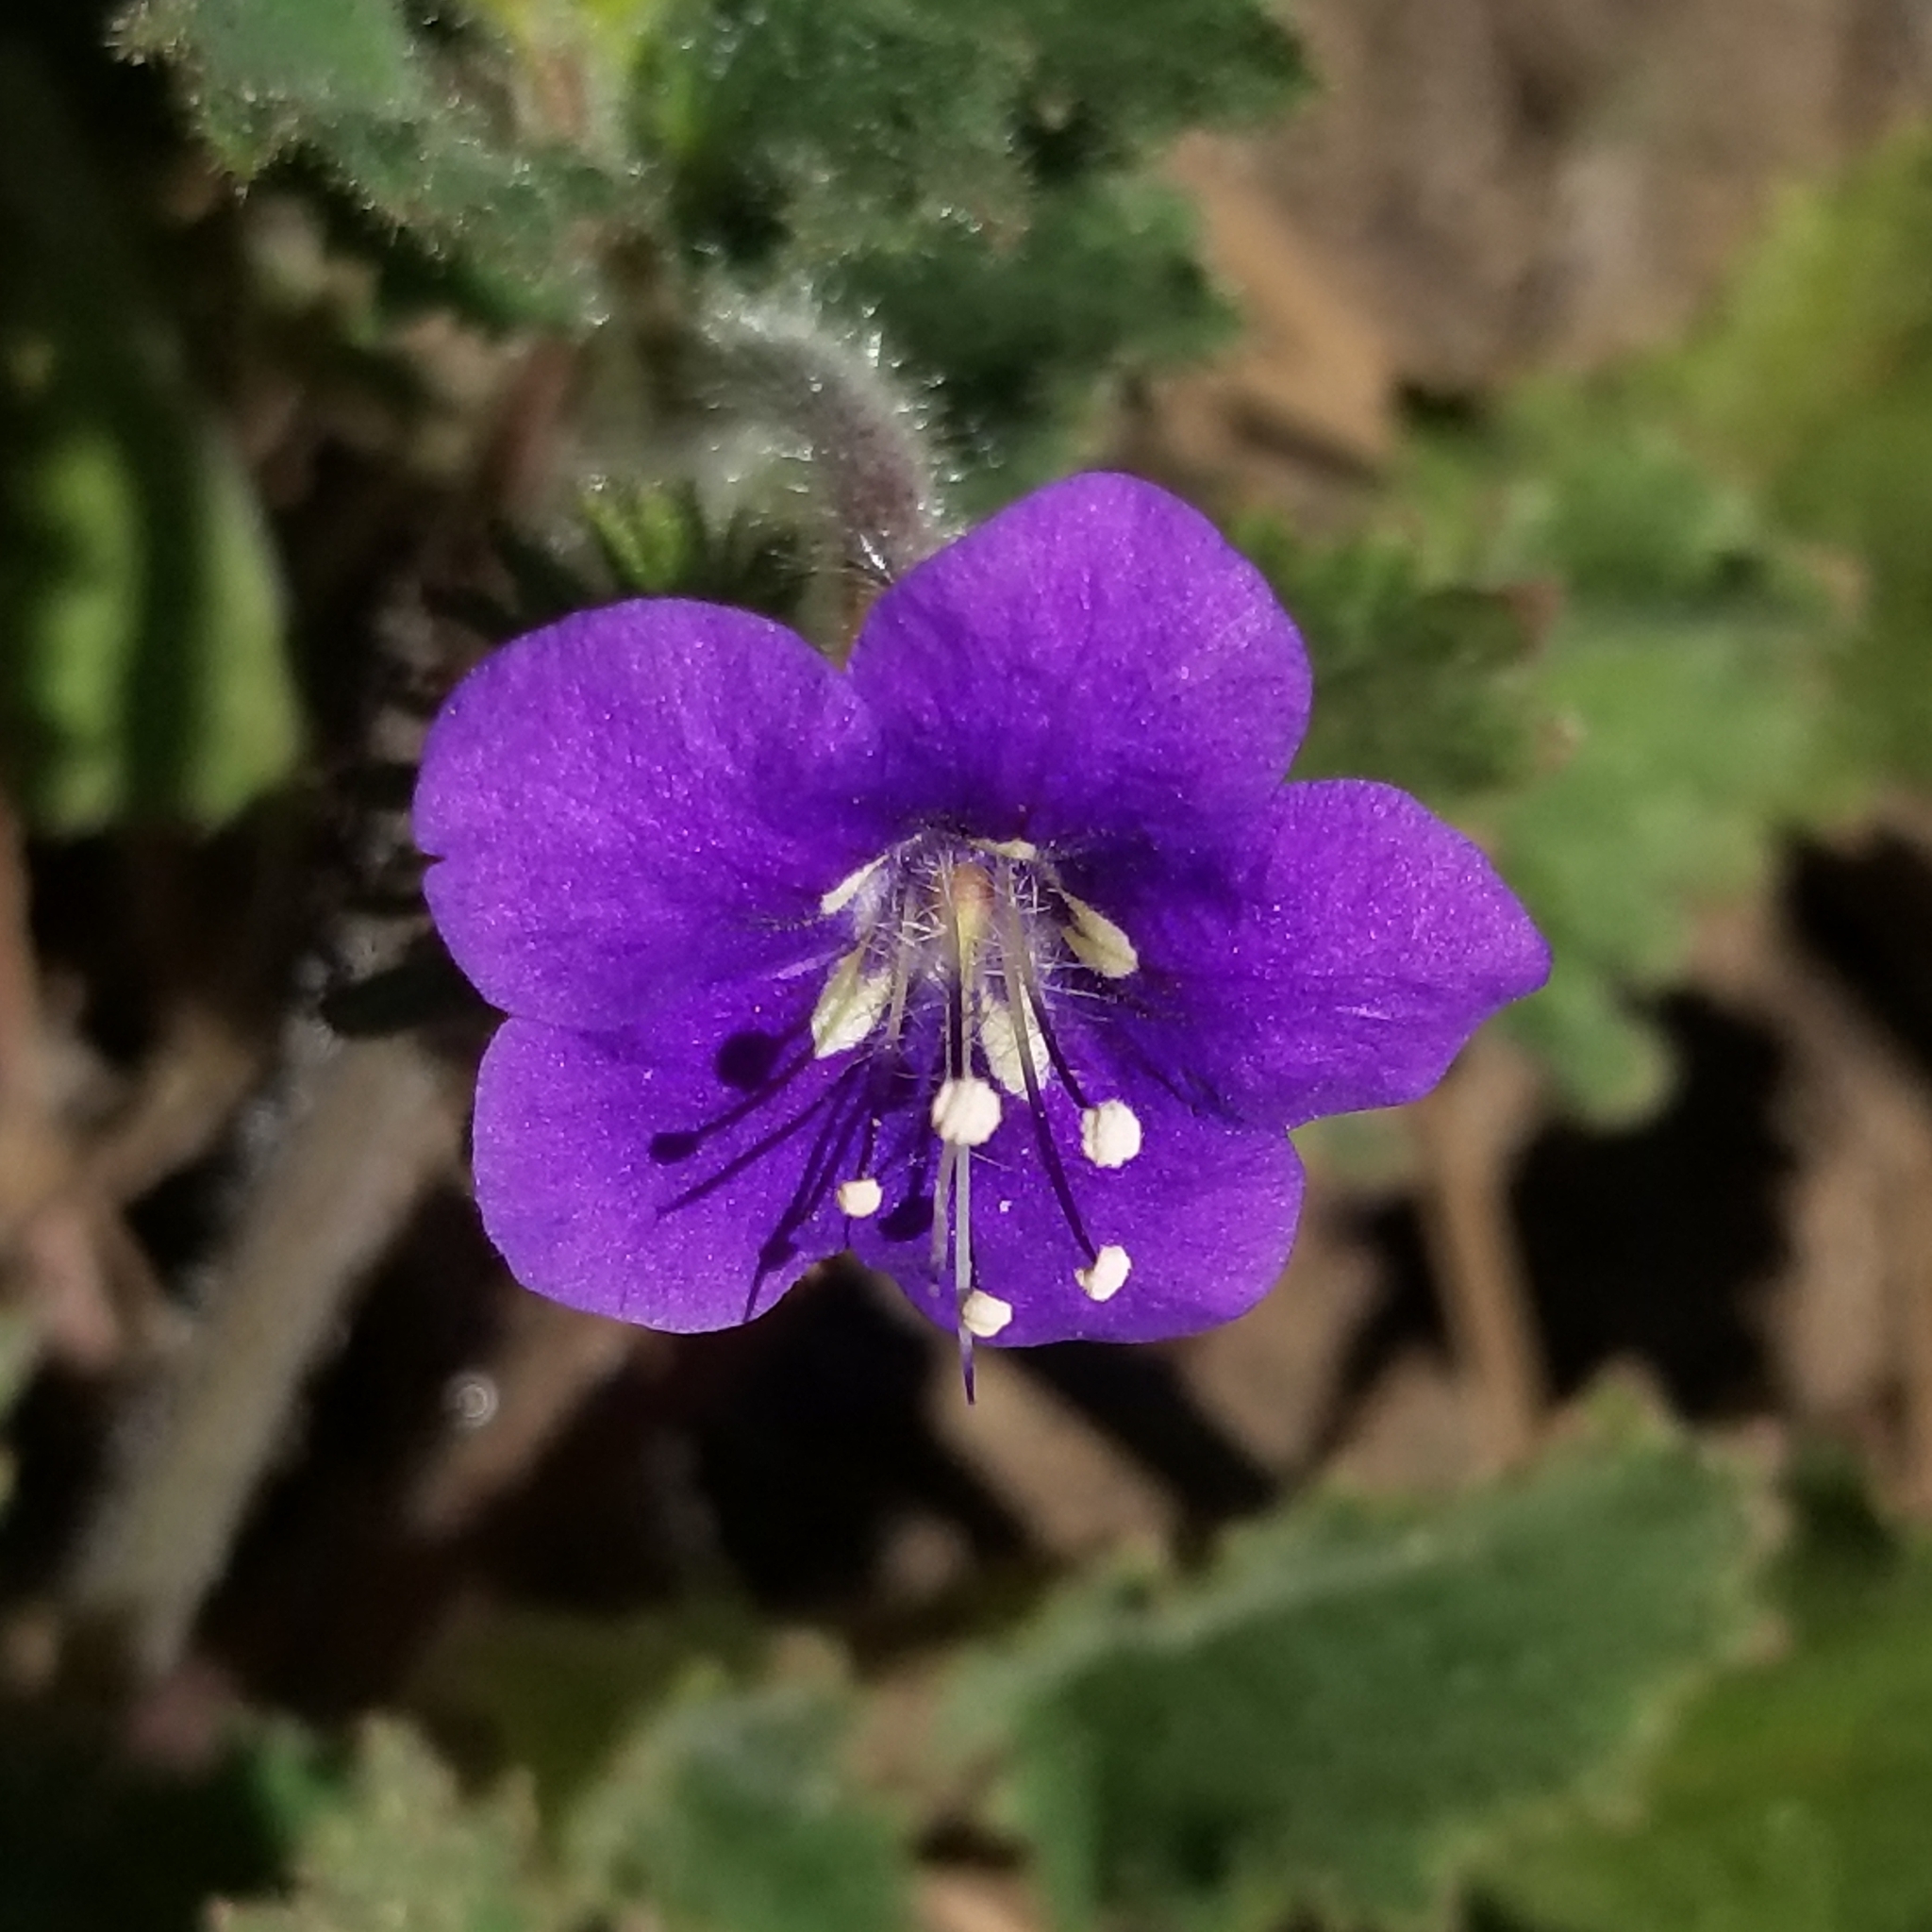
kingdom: Plantae
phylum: Tracheophyta
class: Magnoliopsida
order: Boraginales
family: Hydrophyllaceae
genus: Phacelia
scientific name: Phacelia parryi
